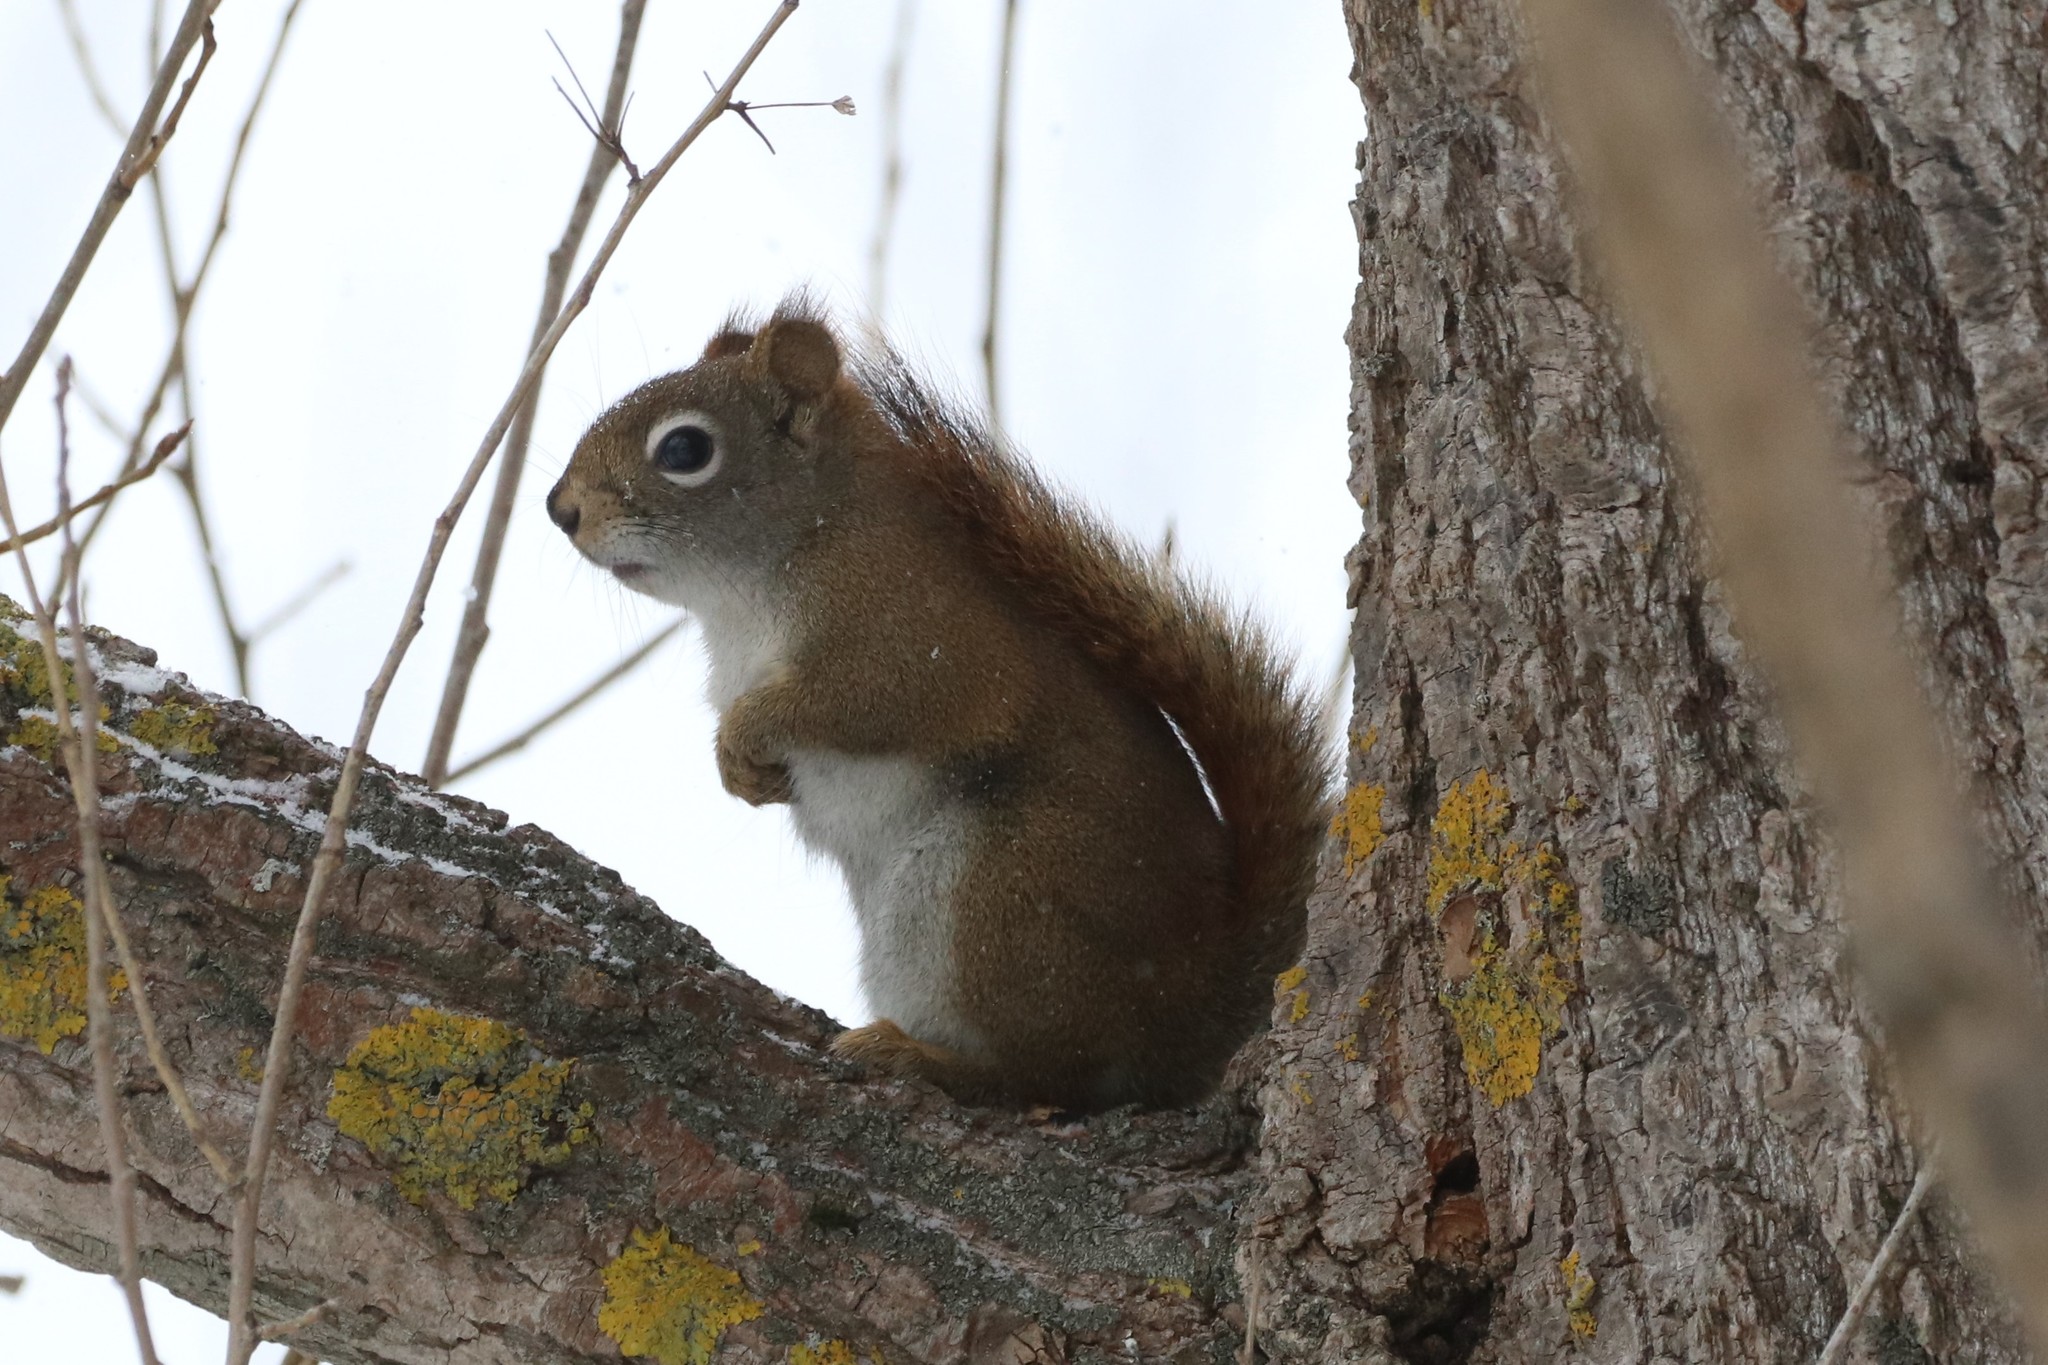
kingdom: Animalia
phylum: Chordata
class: Mammalia
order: Rodentia
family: Sciuridae
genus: Tamiasciurus
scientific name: Tamiasciurus hudsonicus
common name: Red squirrel
